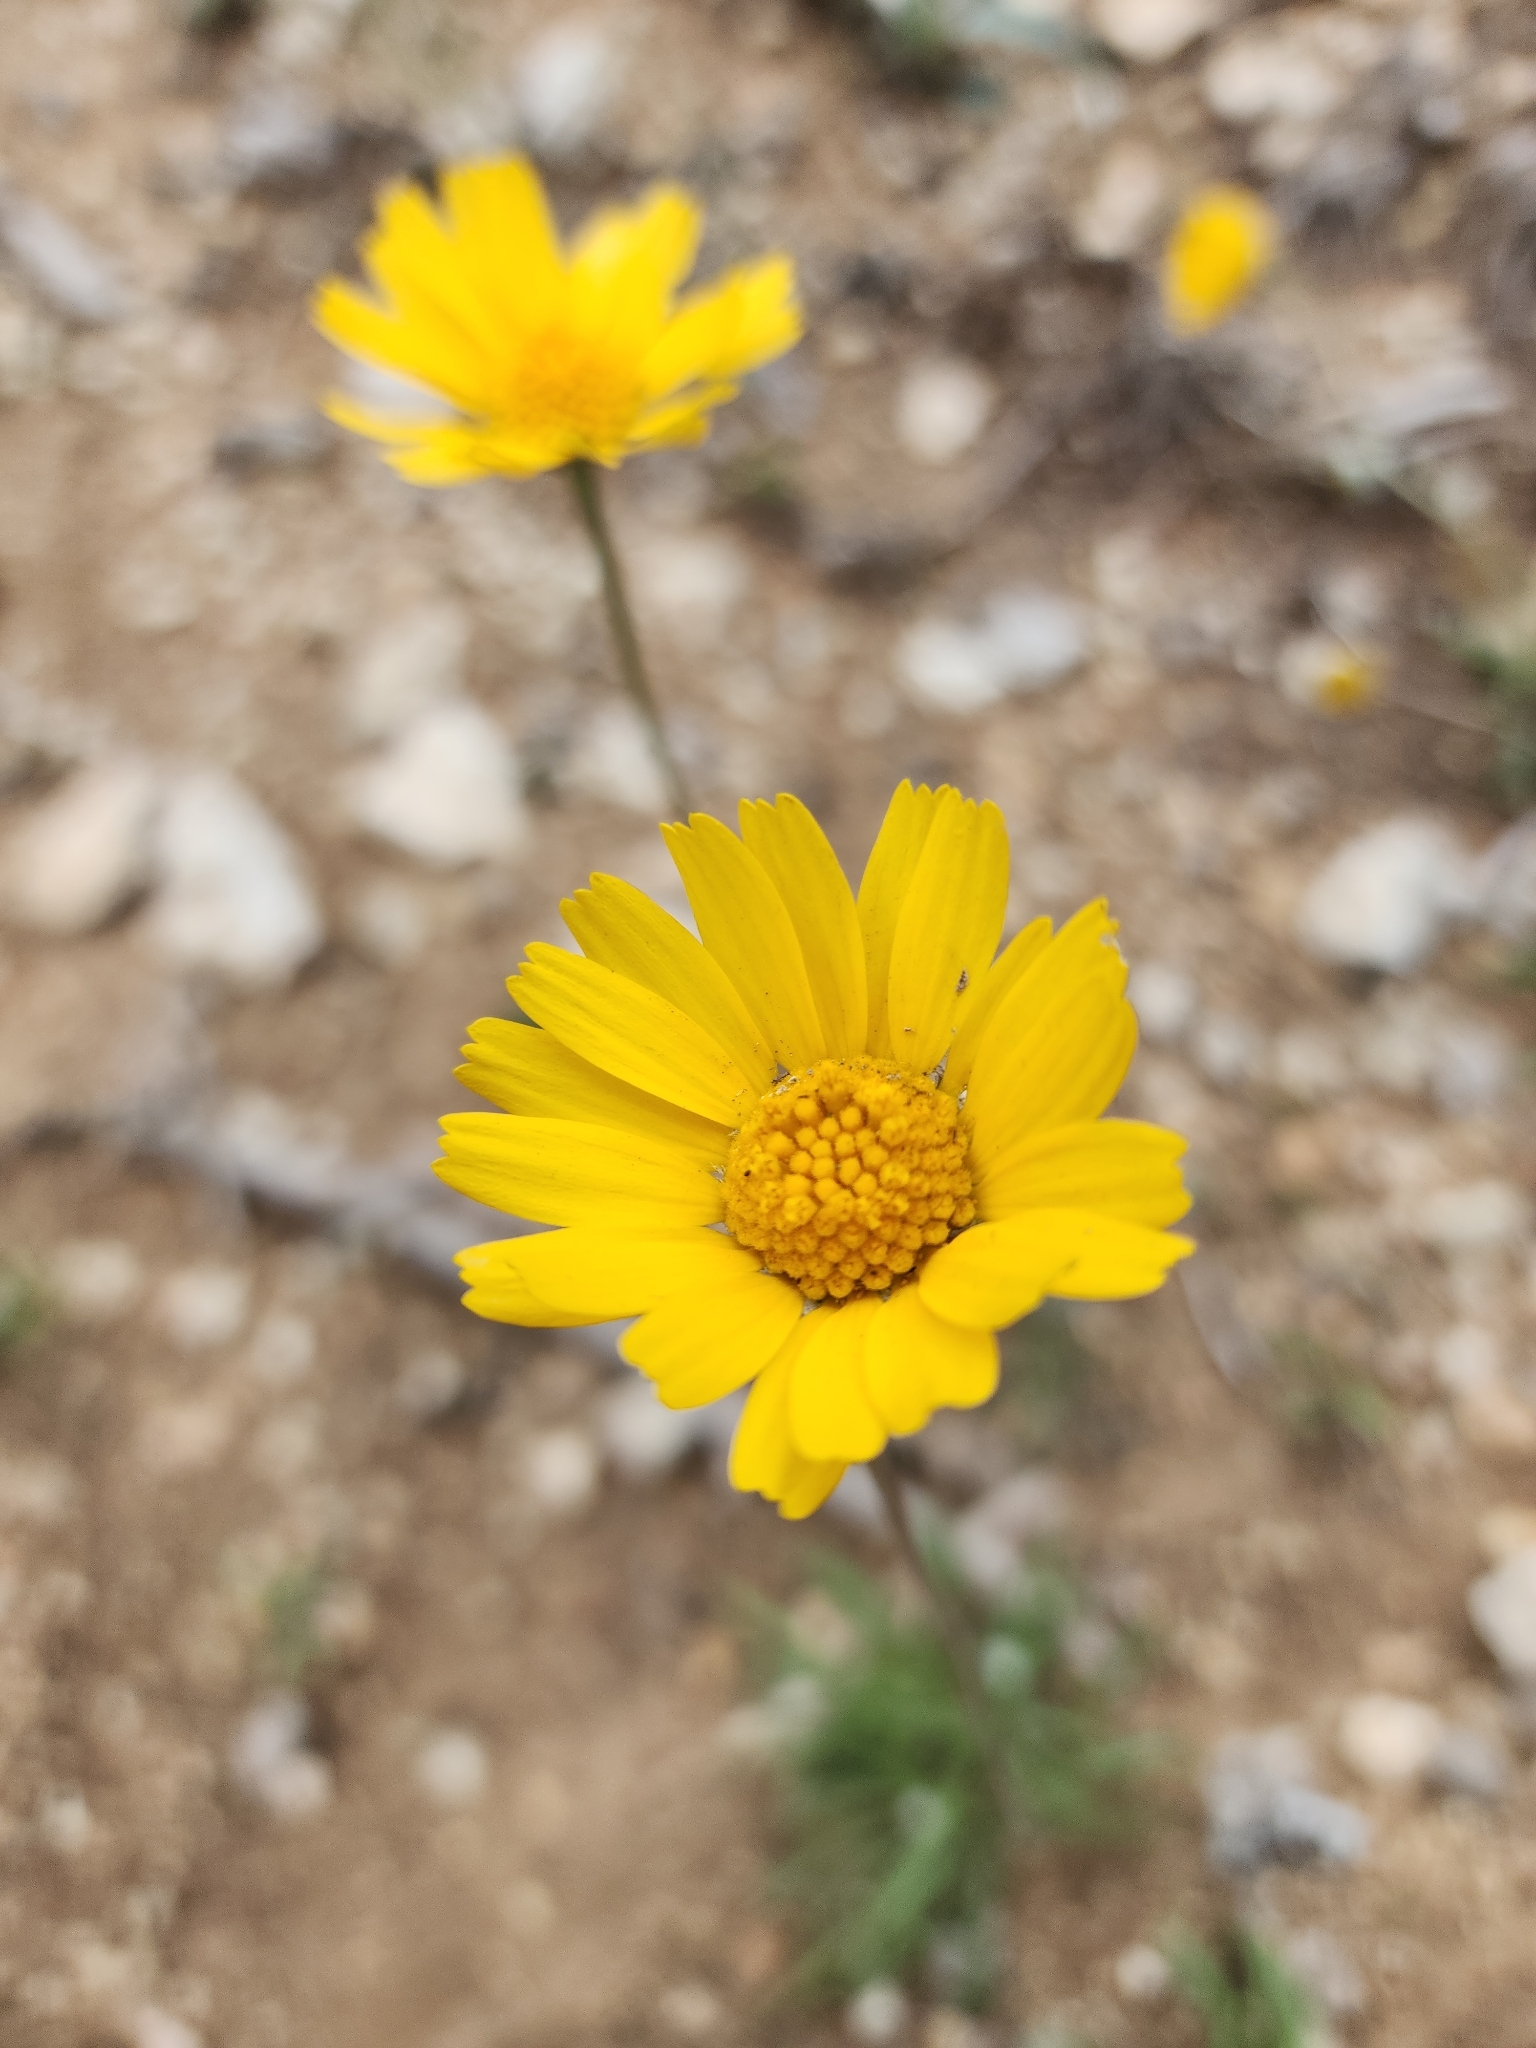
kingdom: Plantae
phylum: Tracheophyta
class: Magnoliopsida
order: Asterales
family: Asteraceae
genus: Tetraneuris
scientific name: Tetraneuris scaposa
